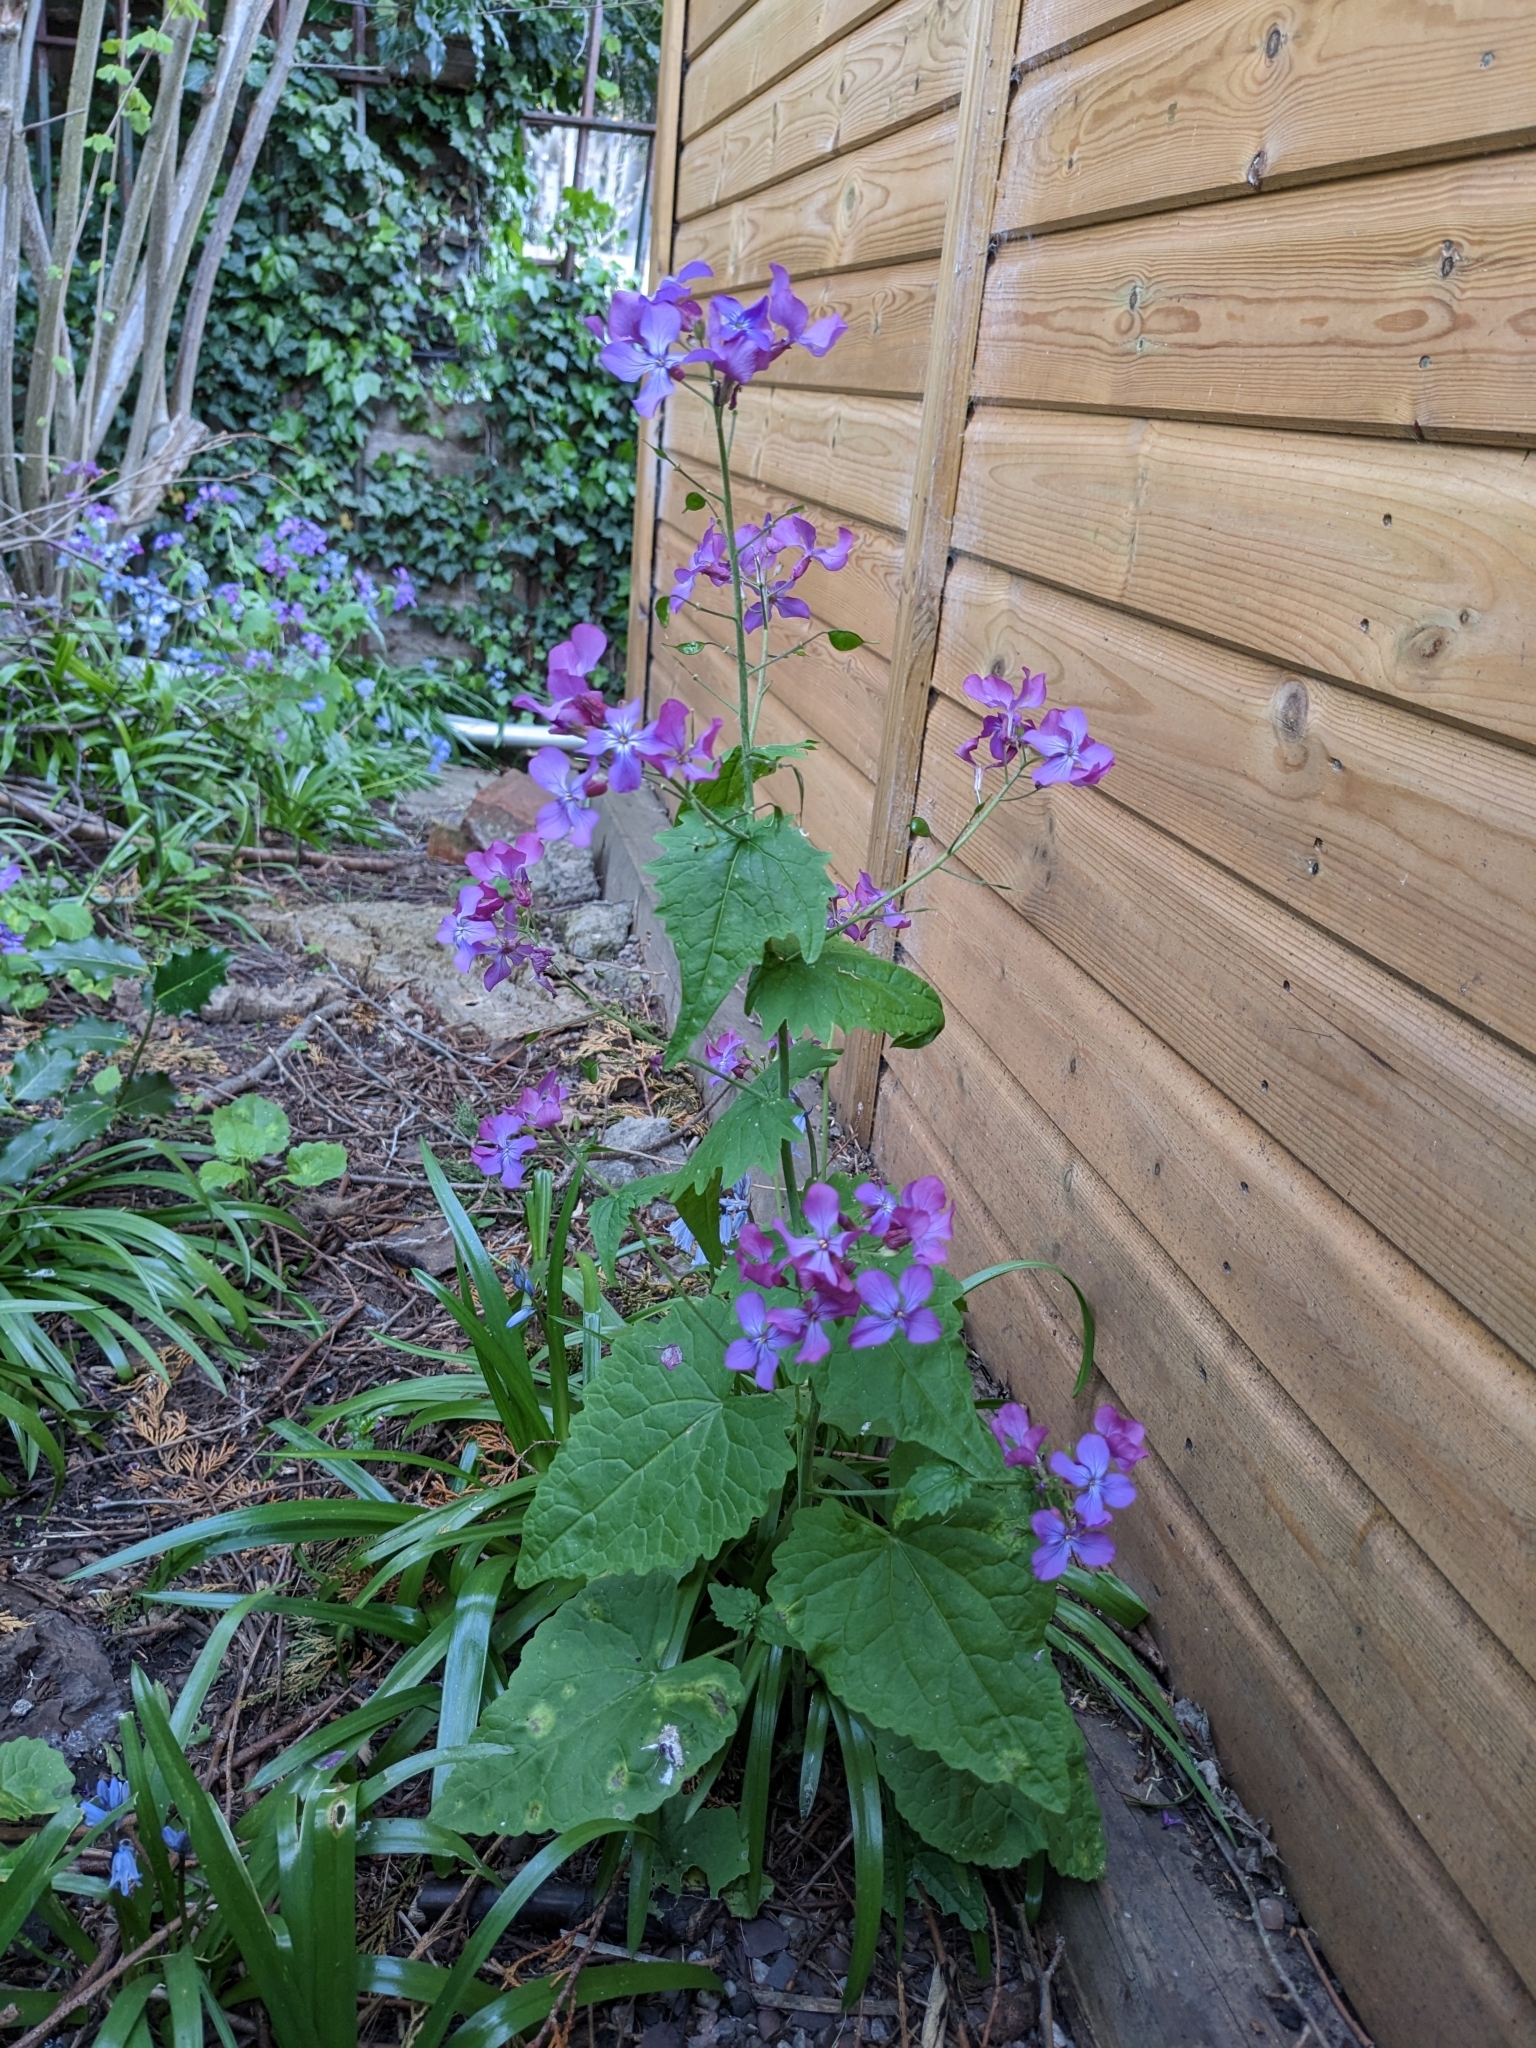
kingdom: Plantae
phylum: Tracheophyta
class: Magnoliopsida
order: Brassicales
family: Brassicaceae
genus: Lunaria
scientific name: Lunaria annua
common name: Honesty
